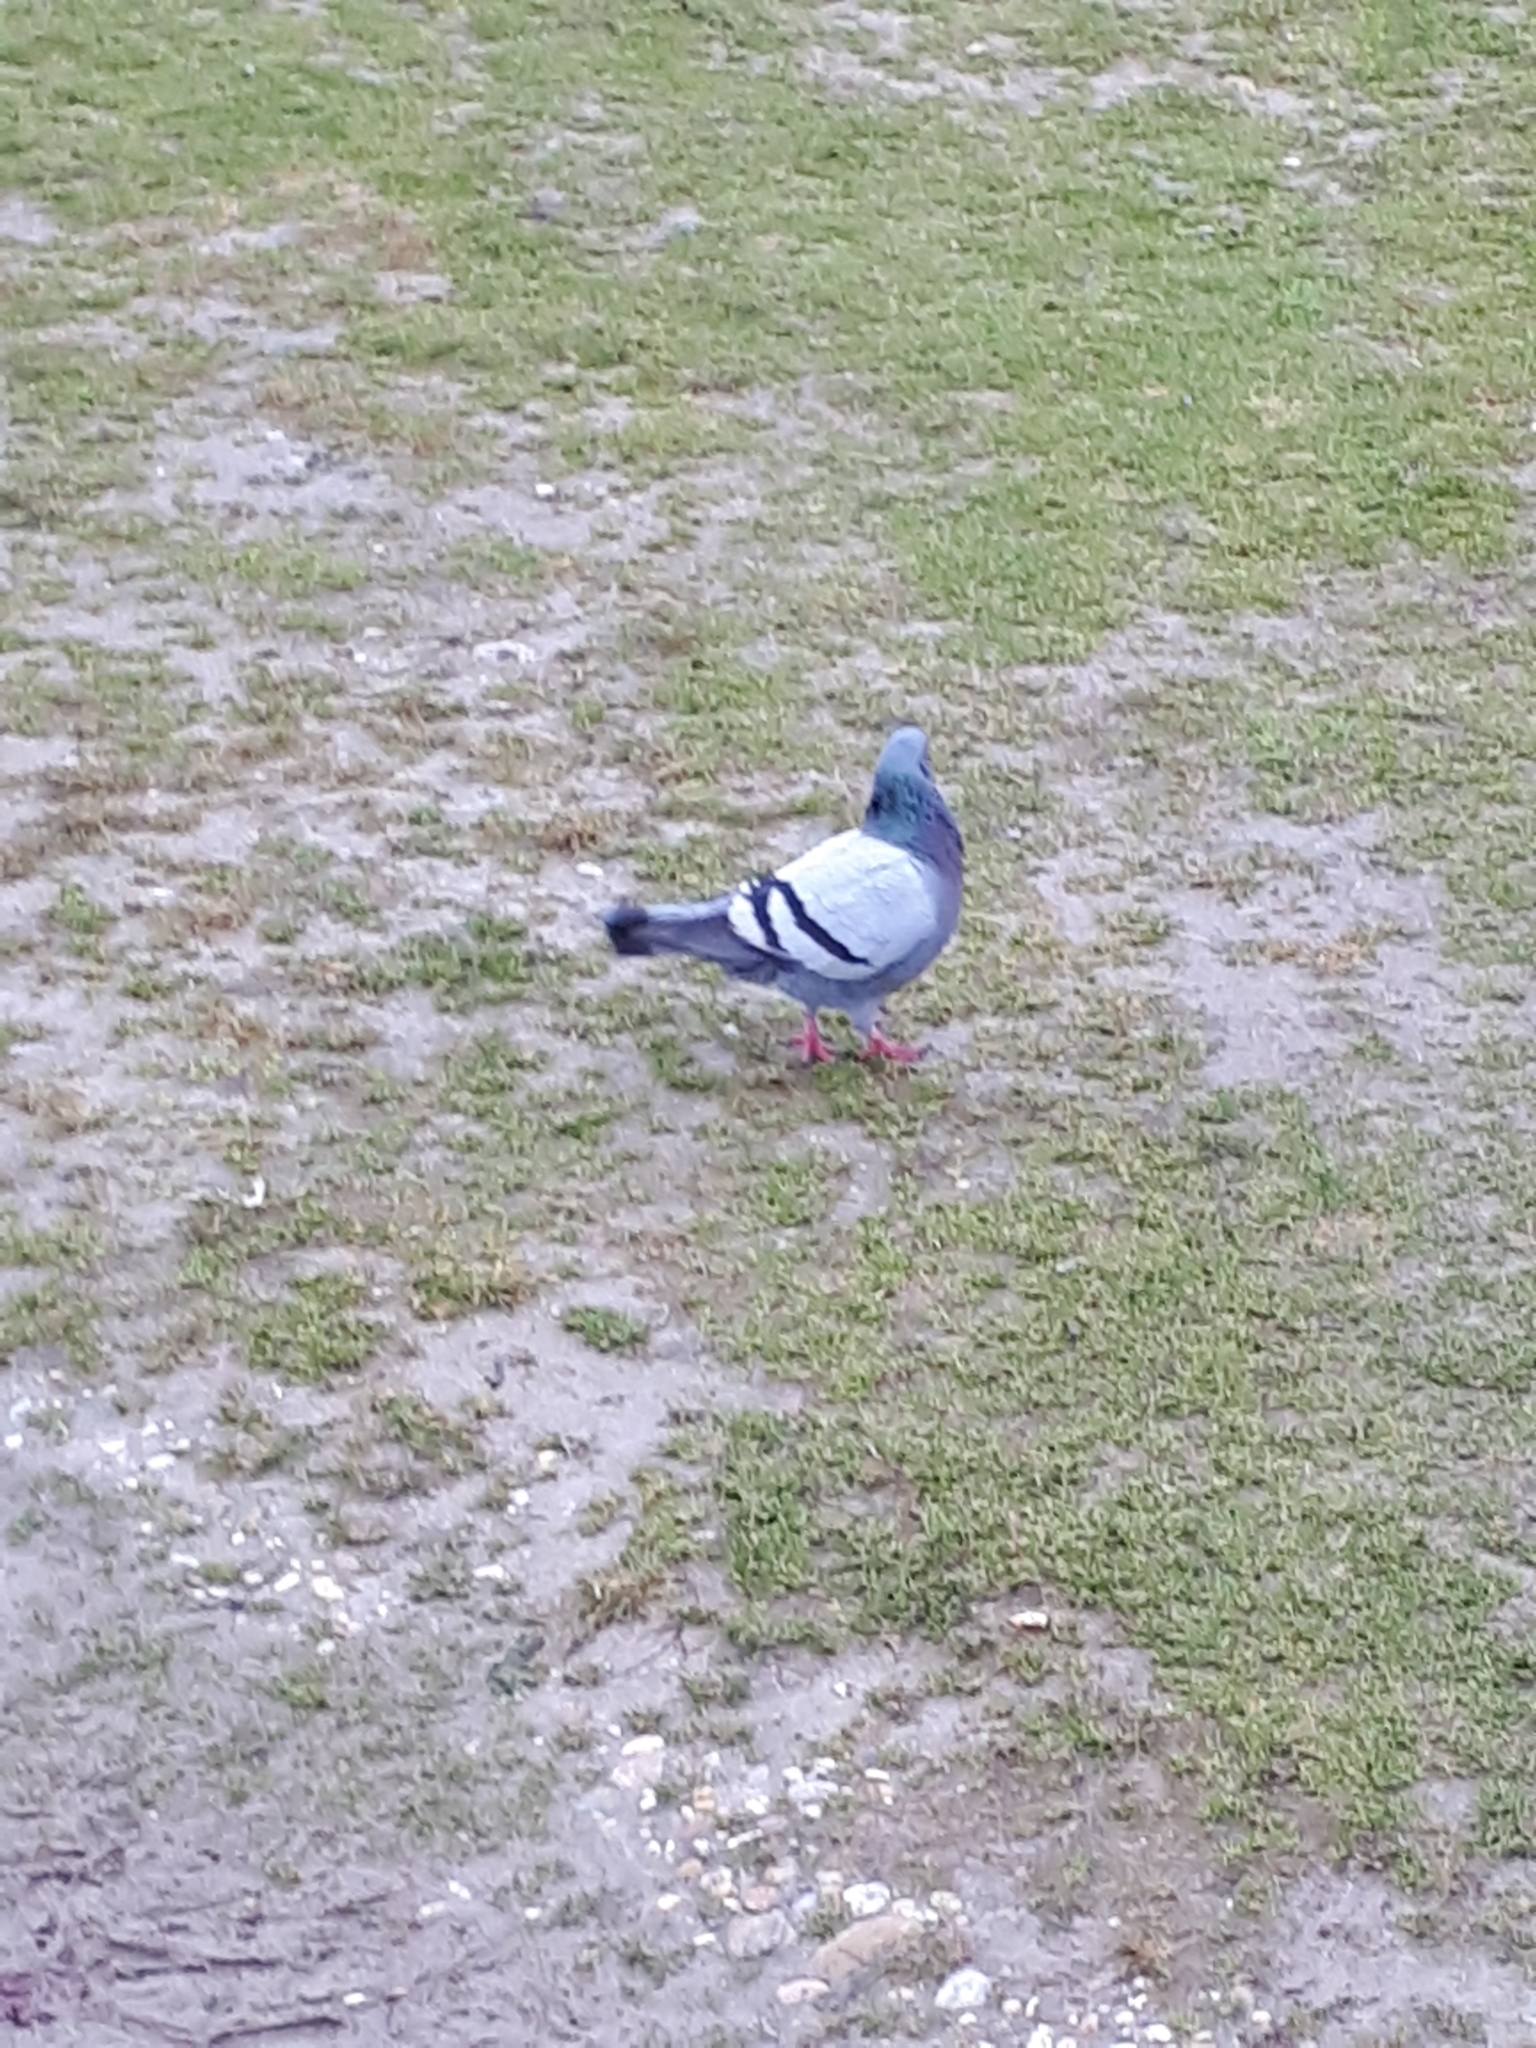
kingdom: Animalia
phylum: Chordata
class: Aves
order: Columbiformes
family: Columbidae
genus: Columba
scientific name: Columba livia
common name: Rock pigeon
